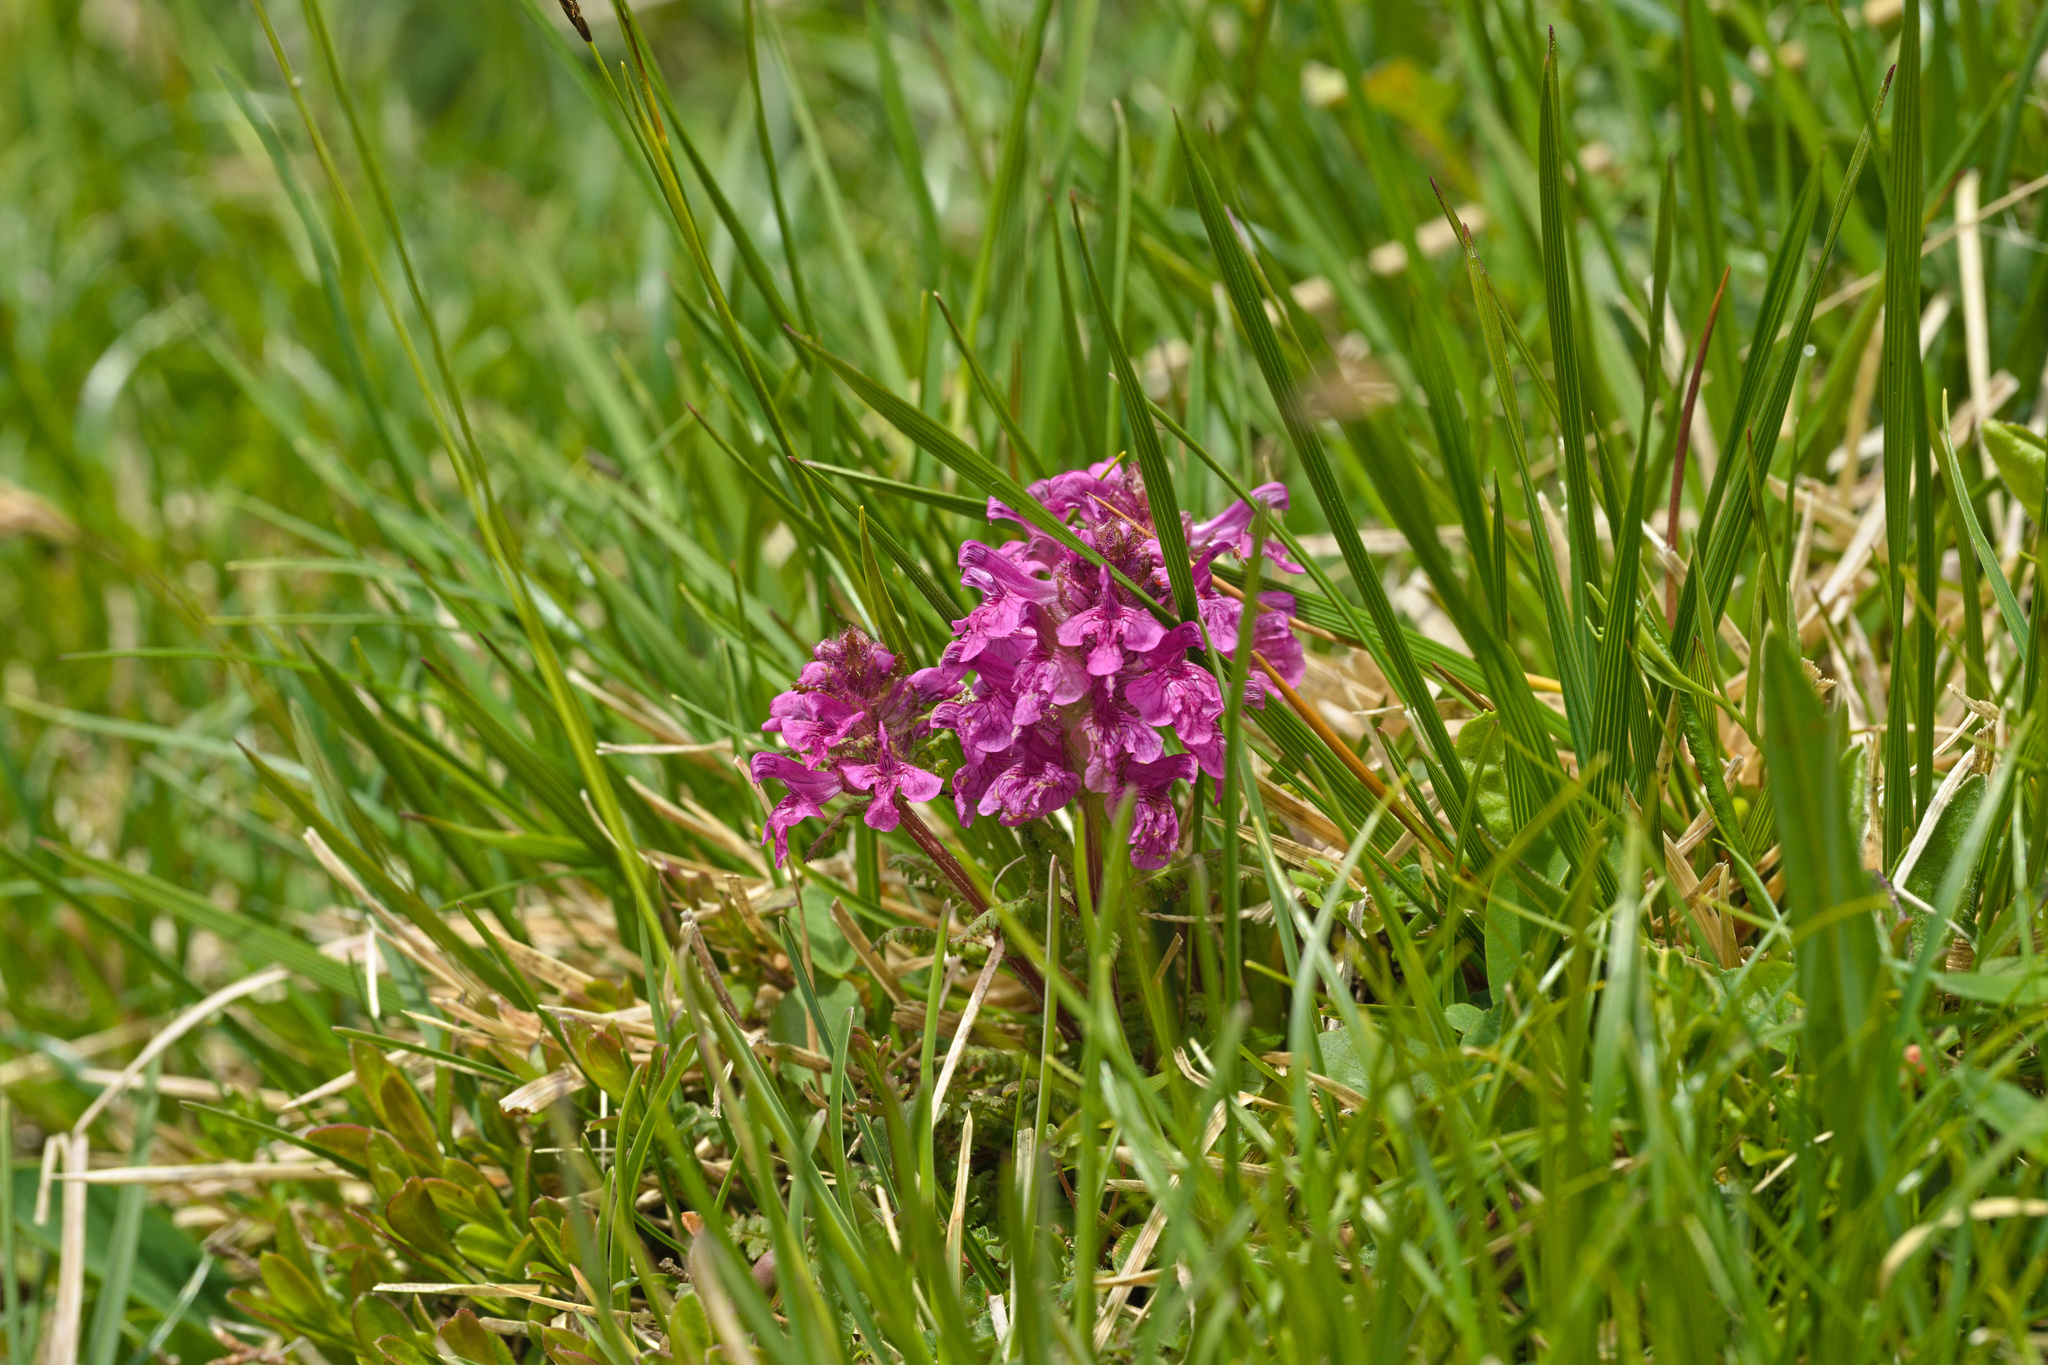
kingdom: Plantae
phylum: Tracheophyta
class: Magnoliopsida
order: Lamiales
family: Orobanchaceae
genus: Pedicularis
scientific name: Pedicularis verticillata
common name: Whorled lousewort
